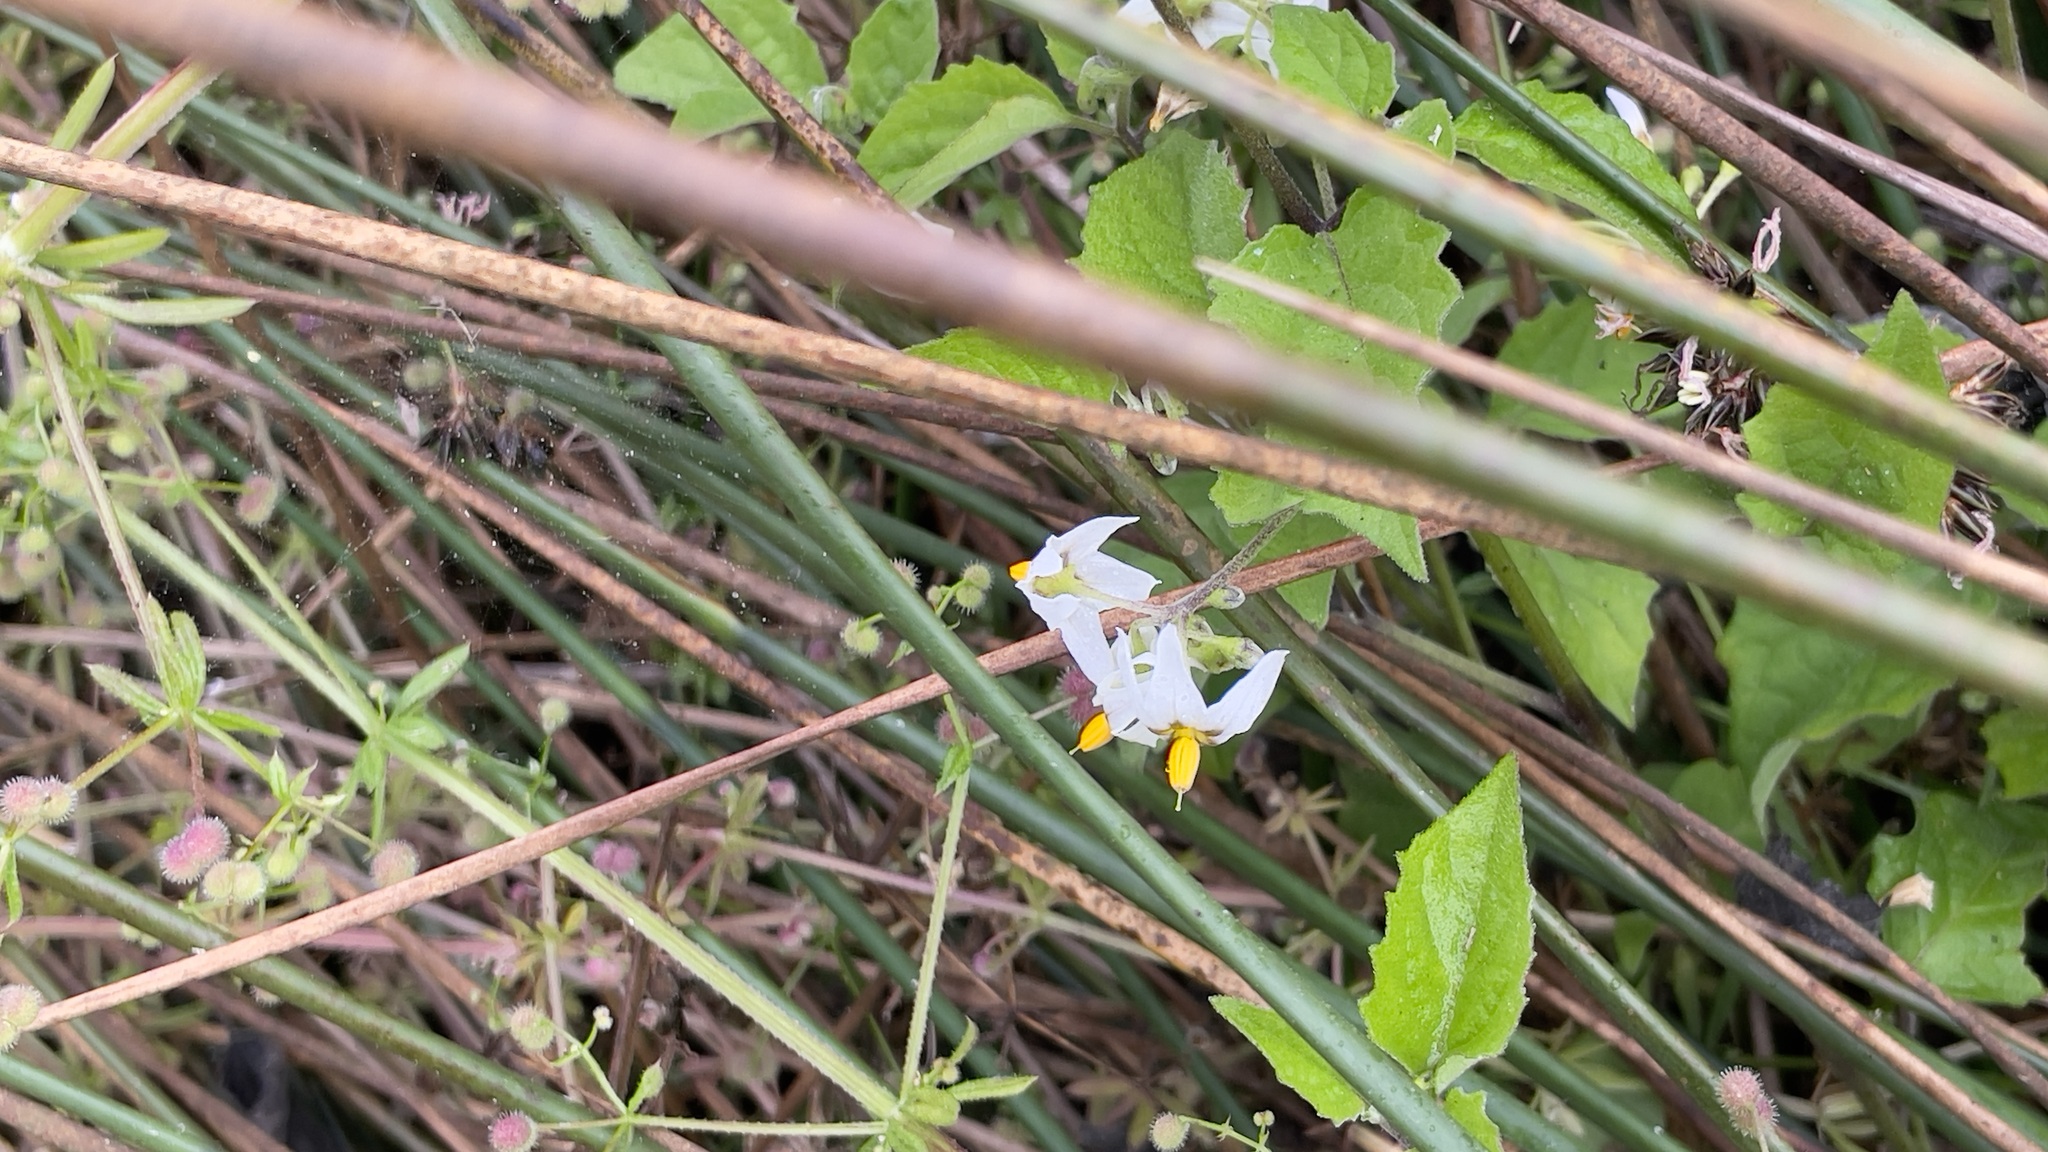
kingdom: Plantae
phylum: Tracheophyta
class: Magnoliopsida
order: Solanales
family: Solanaceae
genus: Solanum
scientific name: Solanum furcatum
